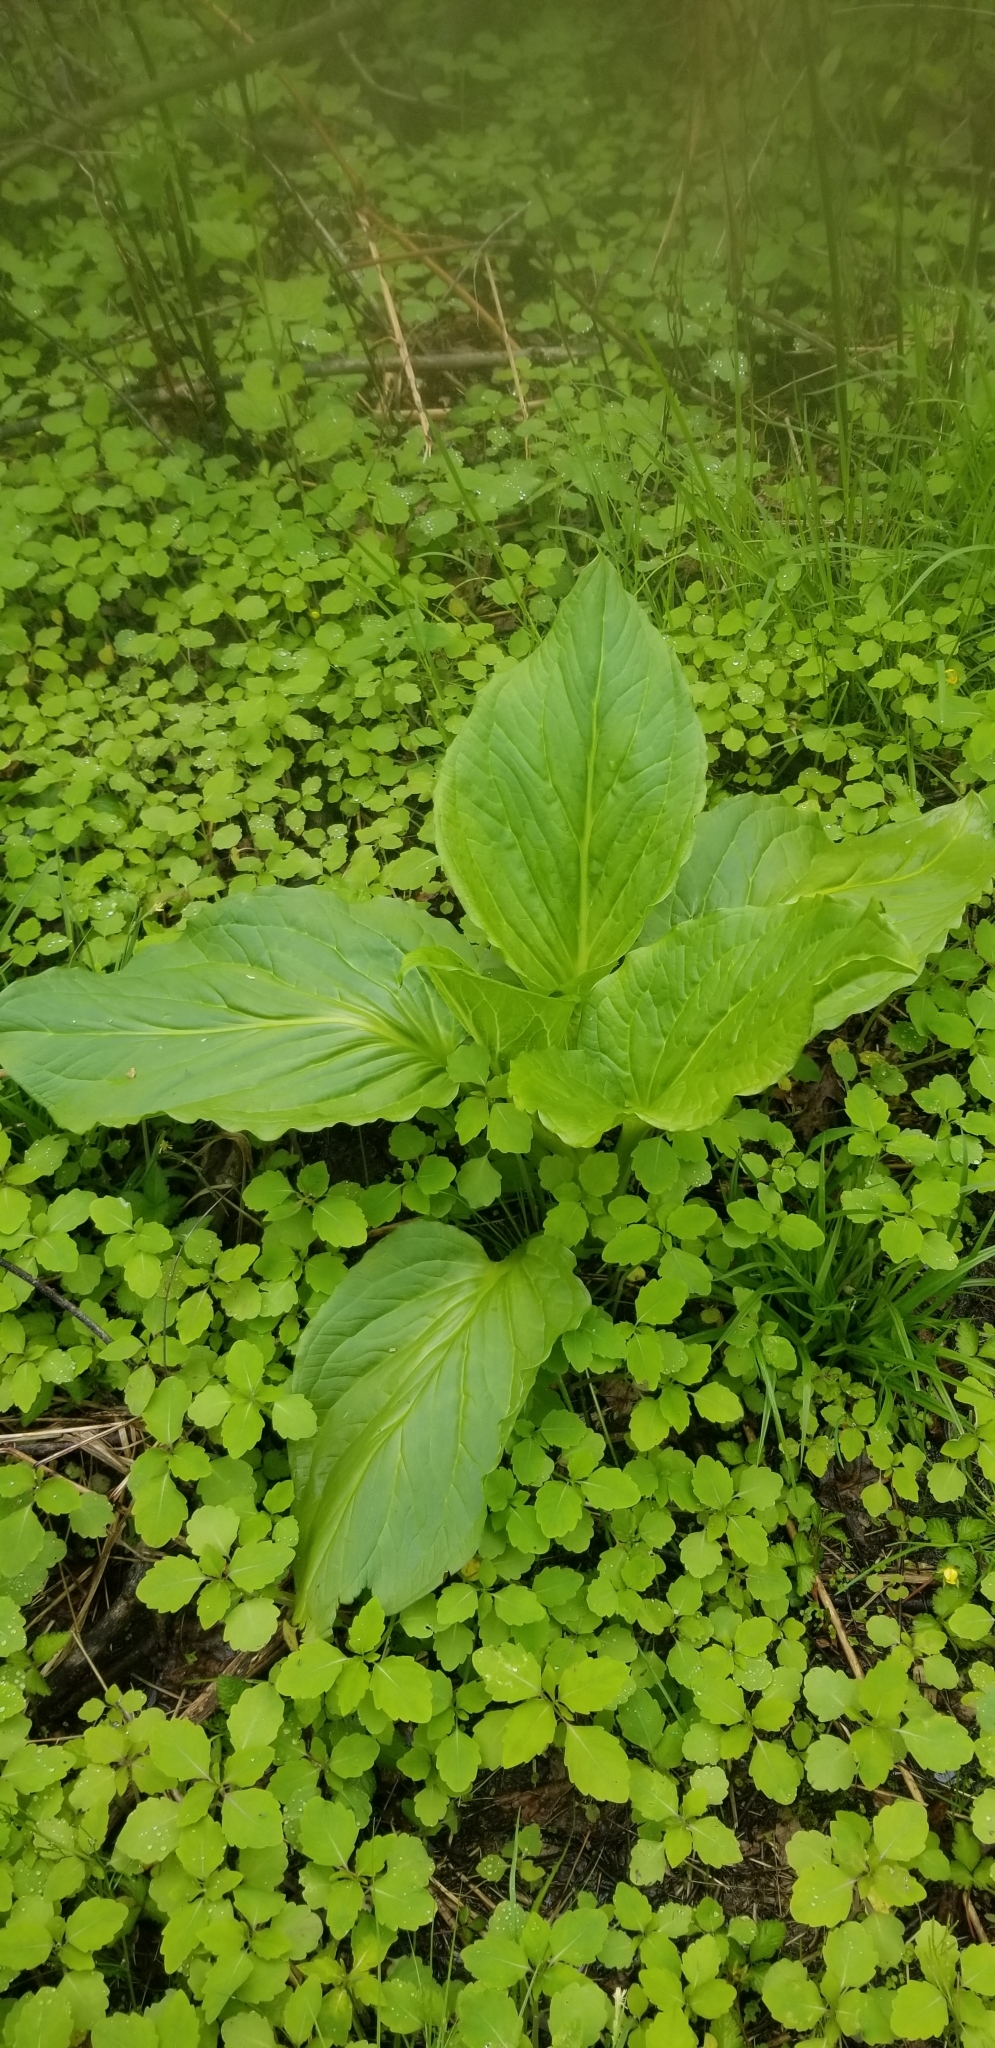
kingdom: Plantae
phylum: Tracheophyta
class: Liliopsida
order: Alismatales
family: Araceae
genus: Symplocarpus
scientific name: Symplocarpus foetidus
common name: Eastern skunk cabbage
